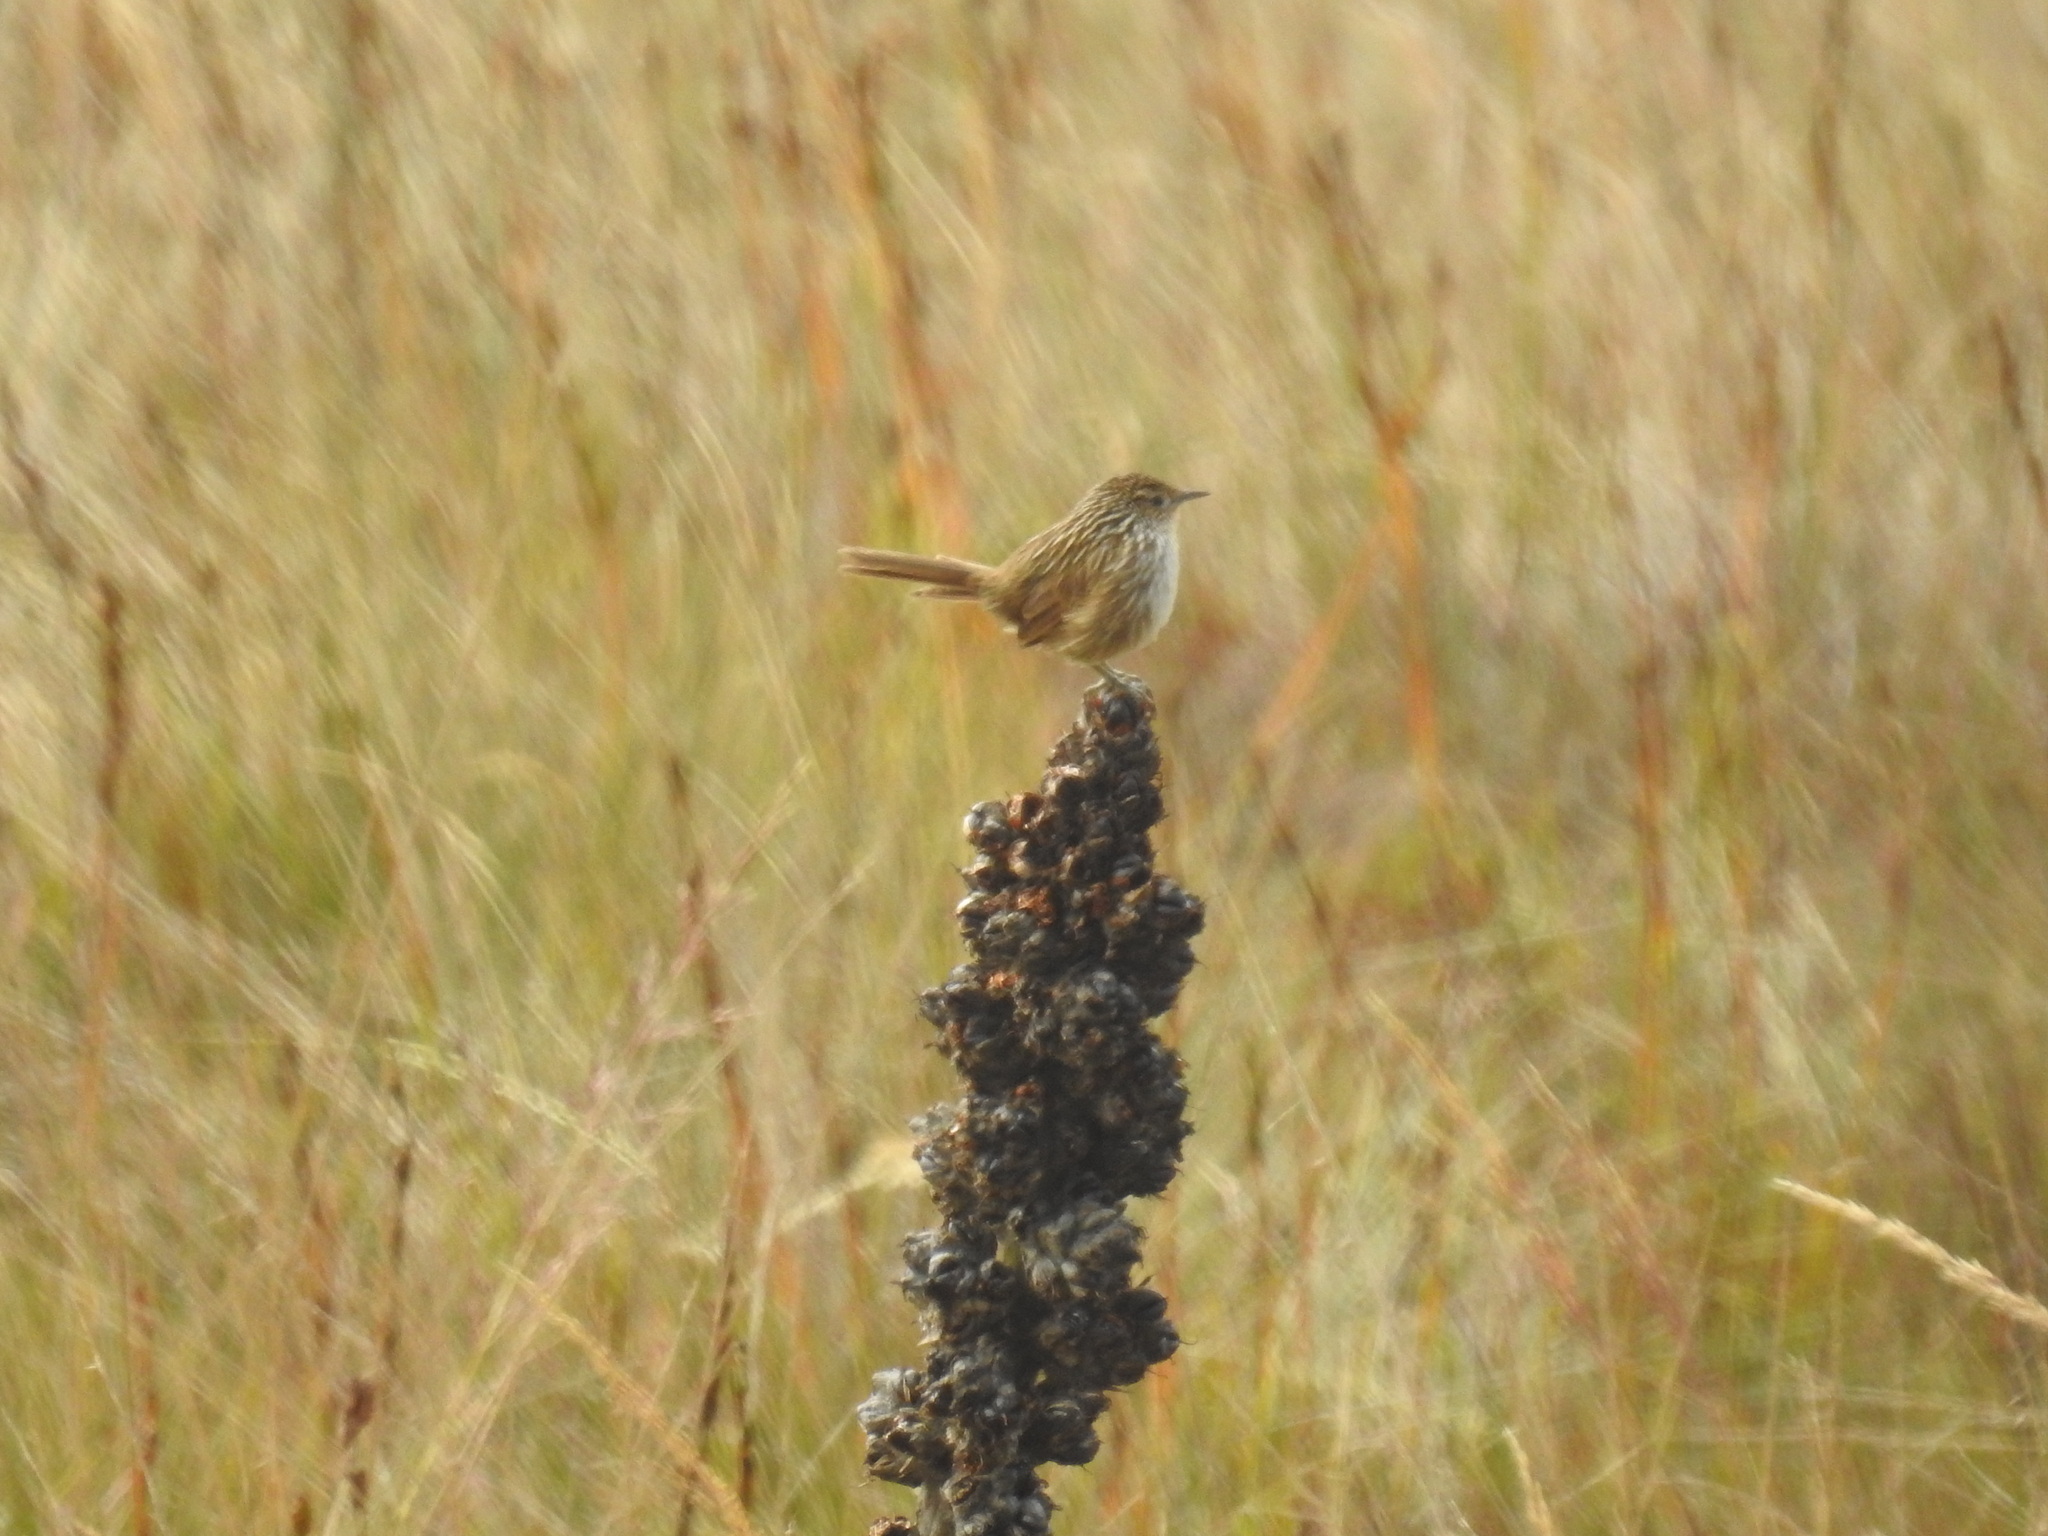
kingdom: Animalia
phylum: Chordata
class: Aves
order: Passeriformes
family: Furnariidae
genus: Asthenes
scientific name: Asthenes virgata
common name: Junin canastero
